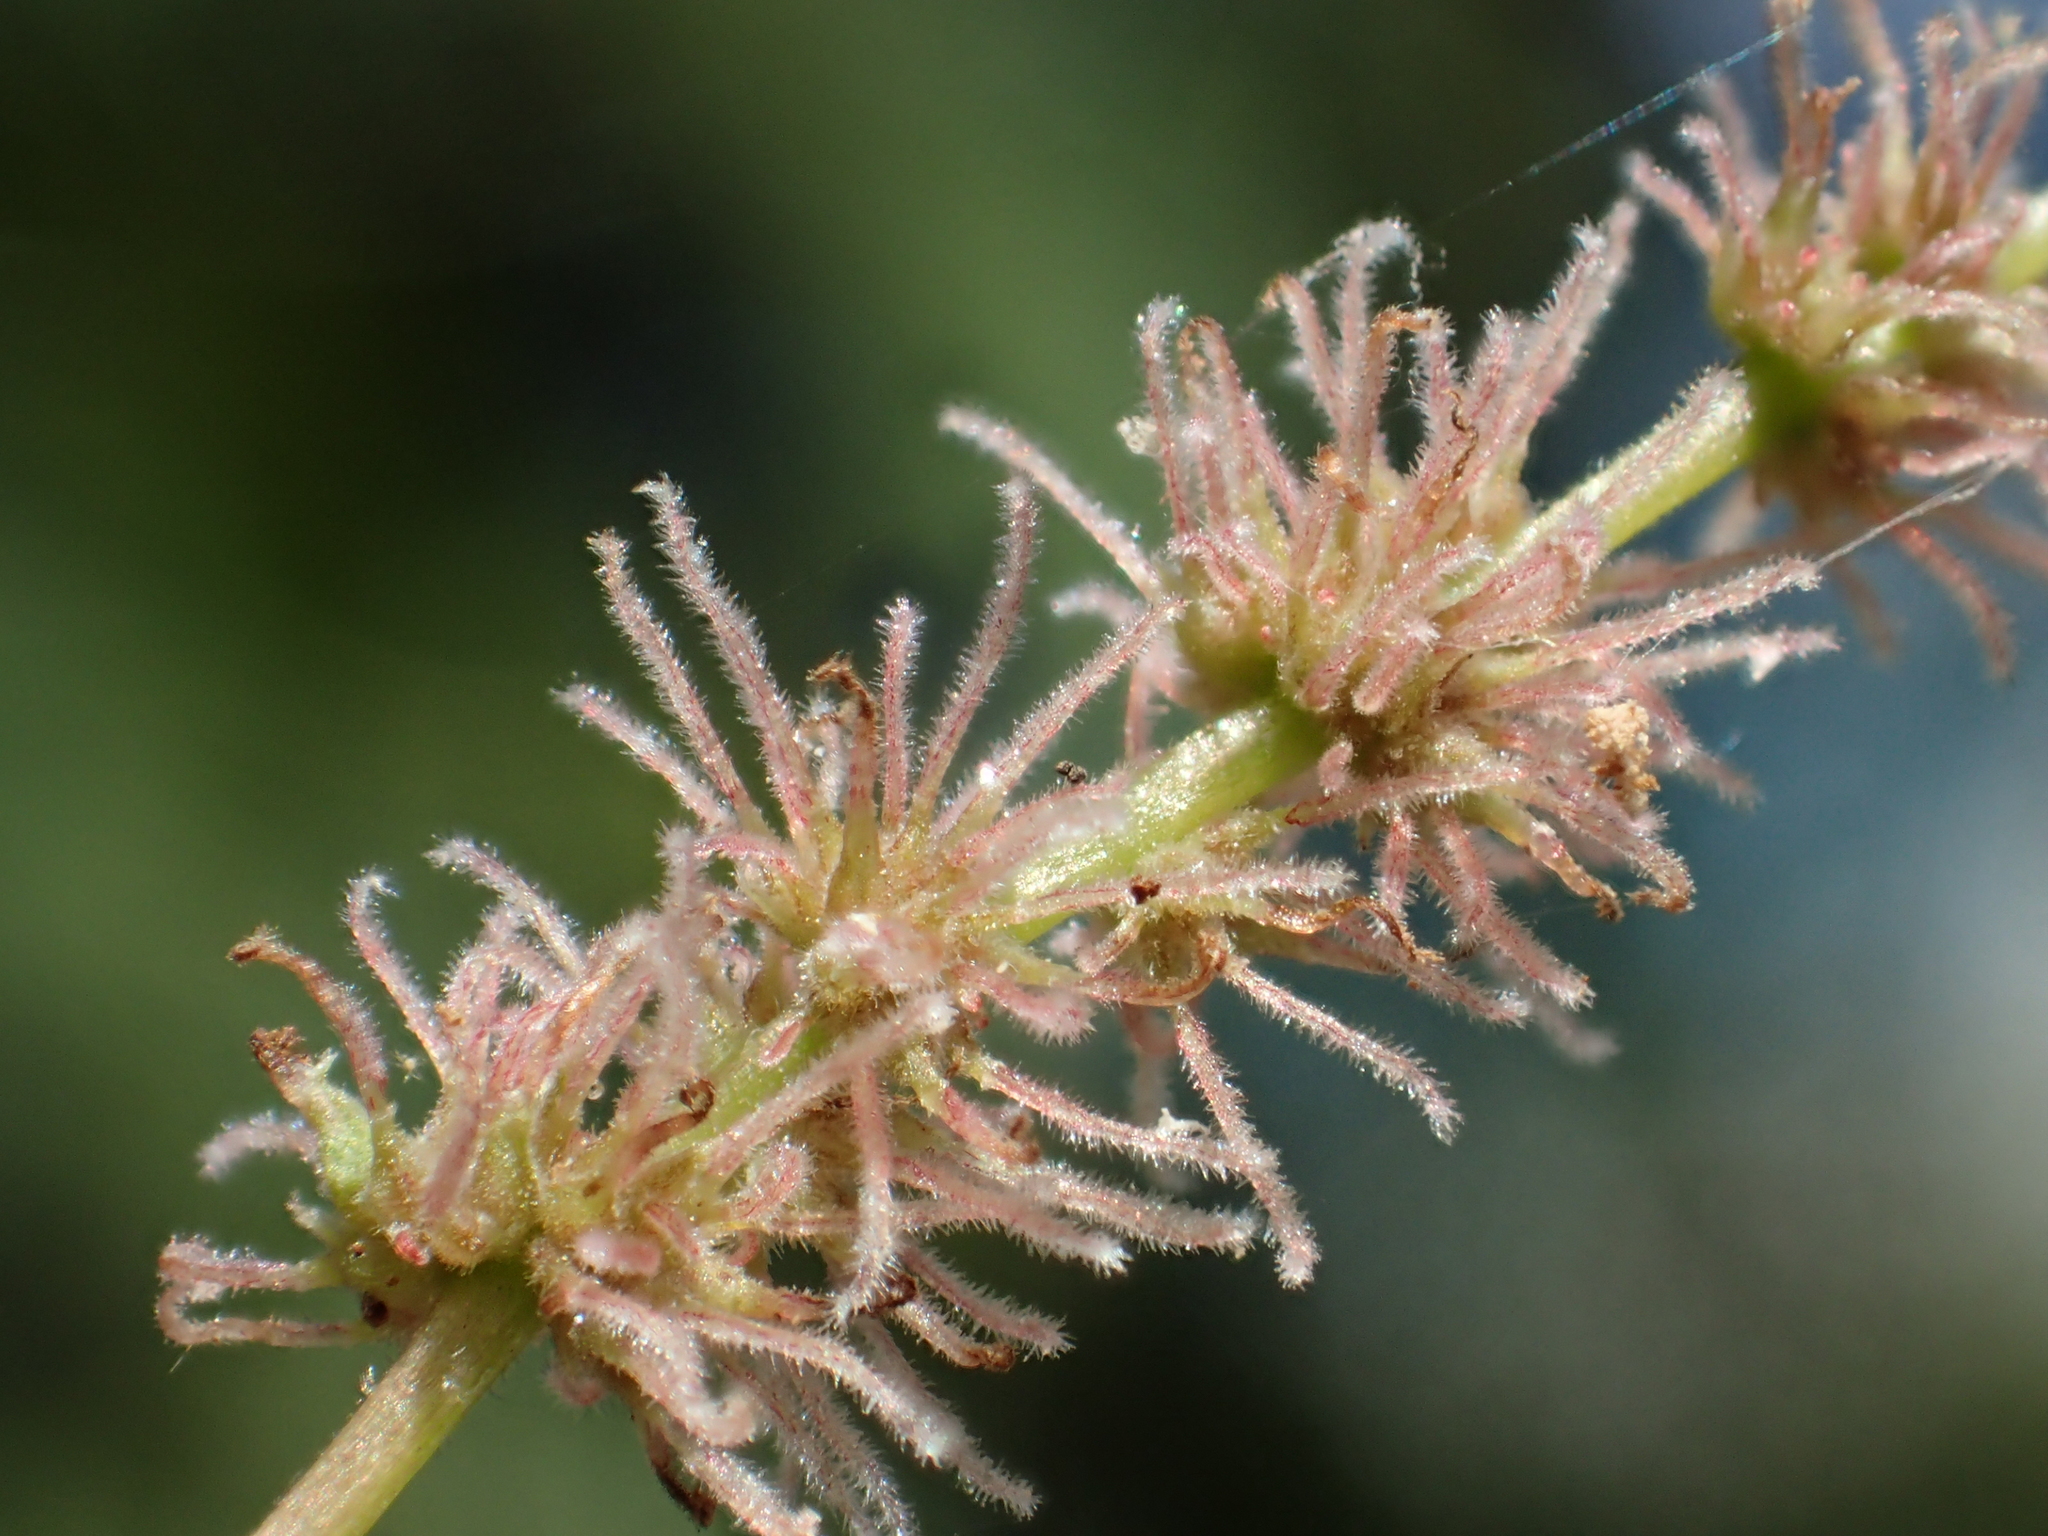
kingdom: Plantae
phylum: Tracheophyta
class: Magnoliopsida
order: Rosales
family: Urticaceae
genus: Boehmeria
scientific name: Boehmeria zollingeriana
